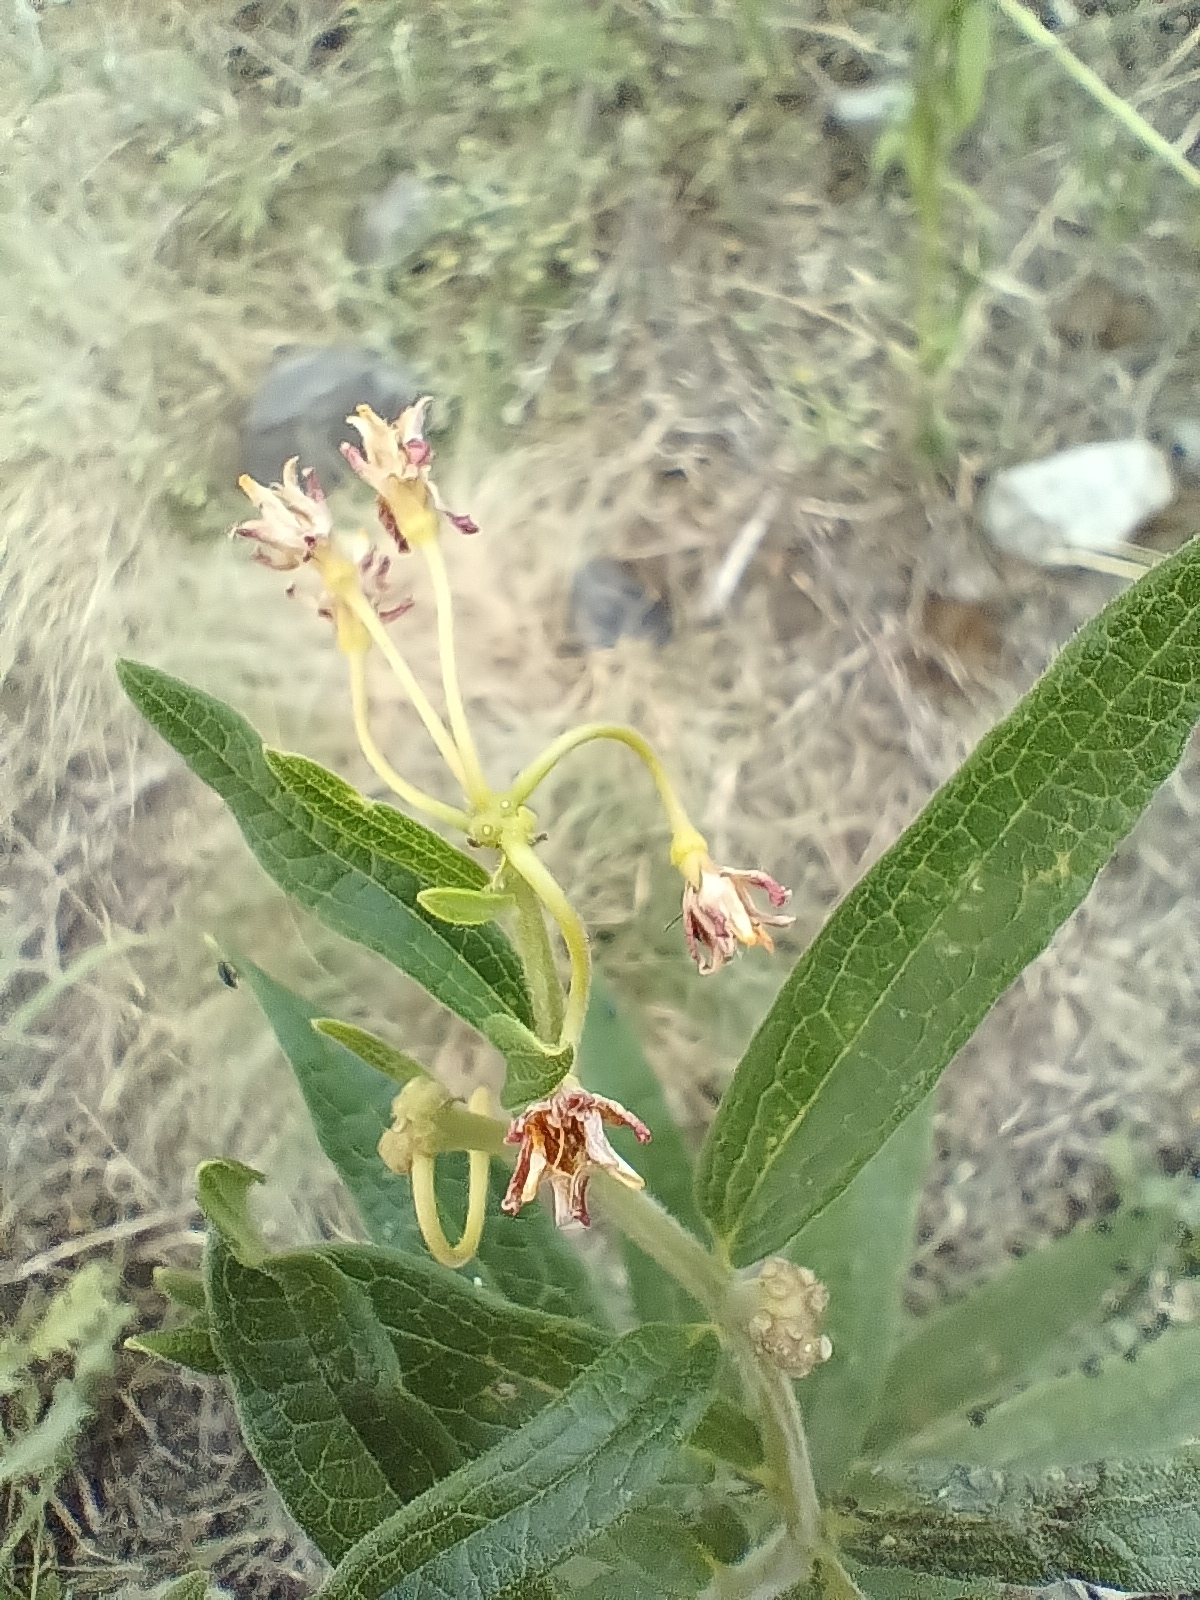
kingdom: Plantae
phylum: Tracheophyta
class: Magnoliopsida
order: Gentianales
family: Apocynaceae
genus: Asclepias
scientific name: Asclepias tuberosa
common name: Butterfly milkweed
